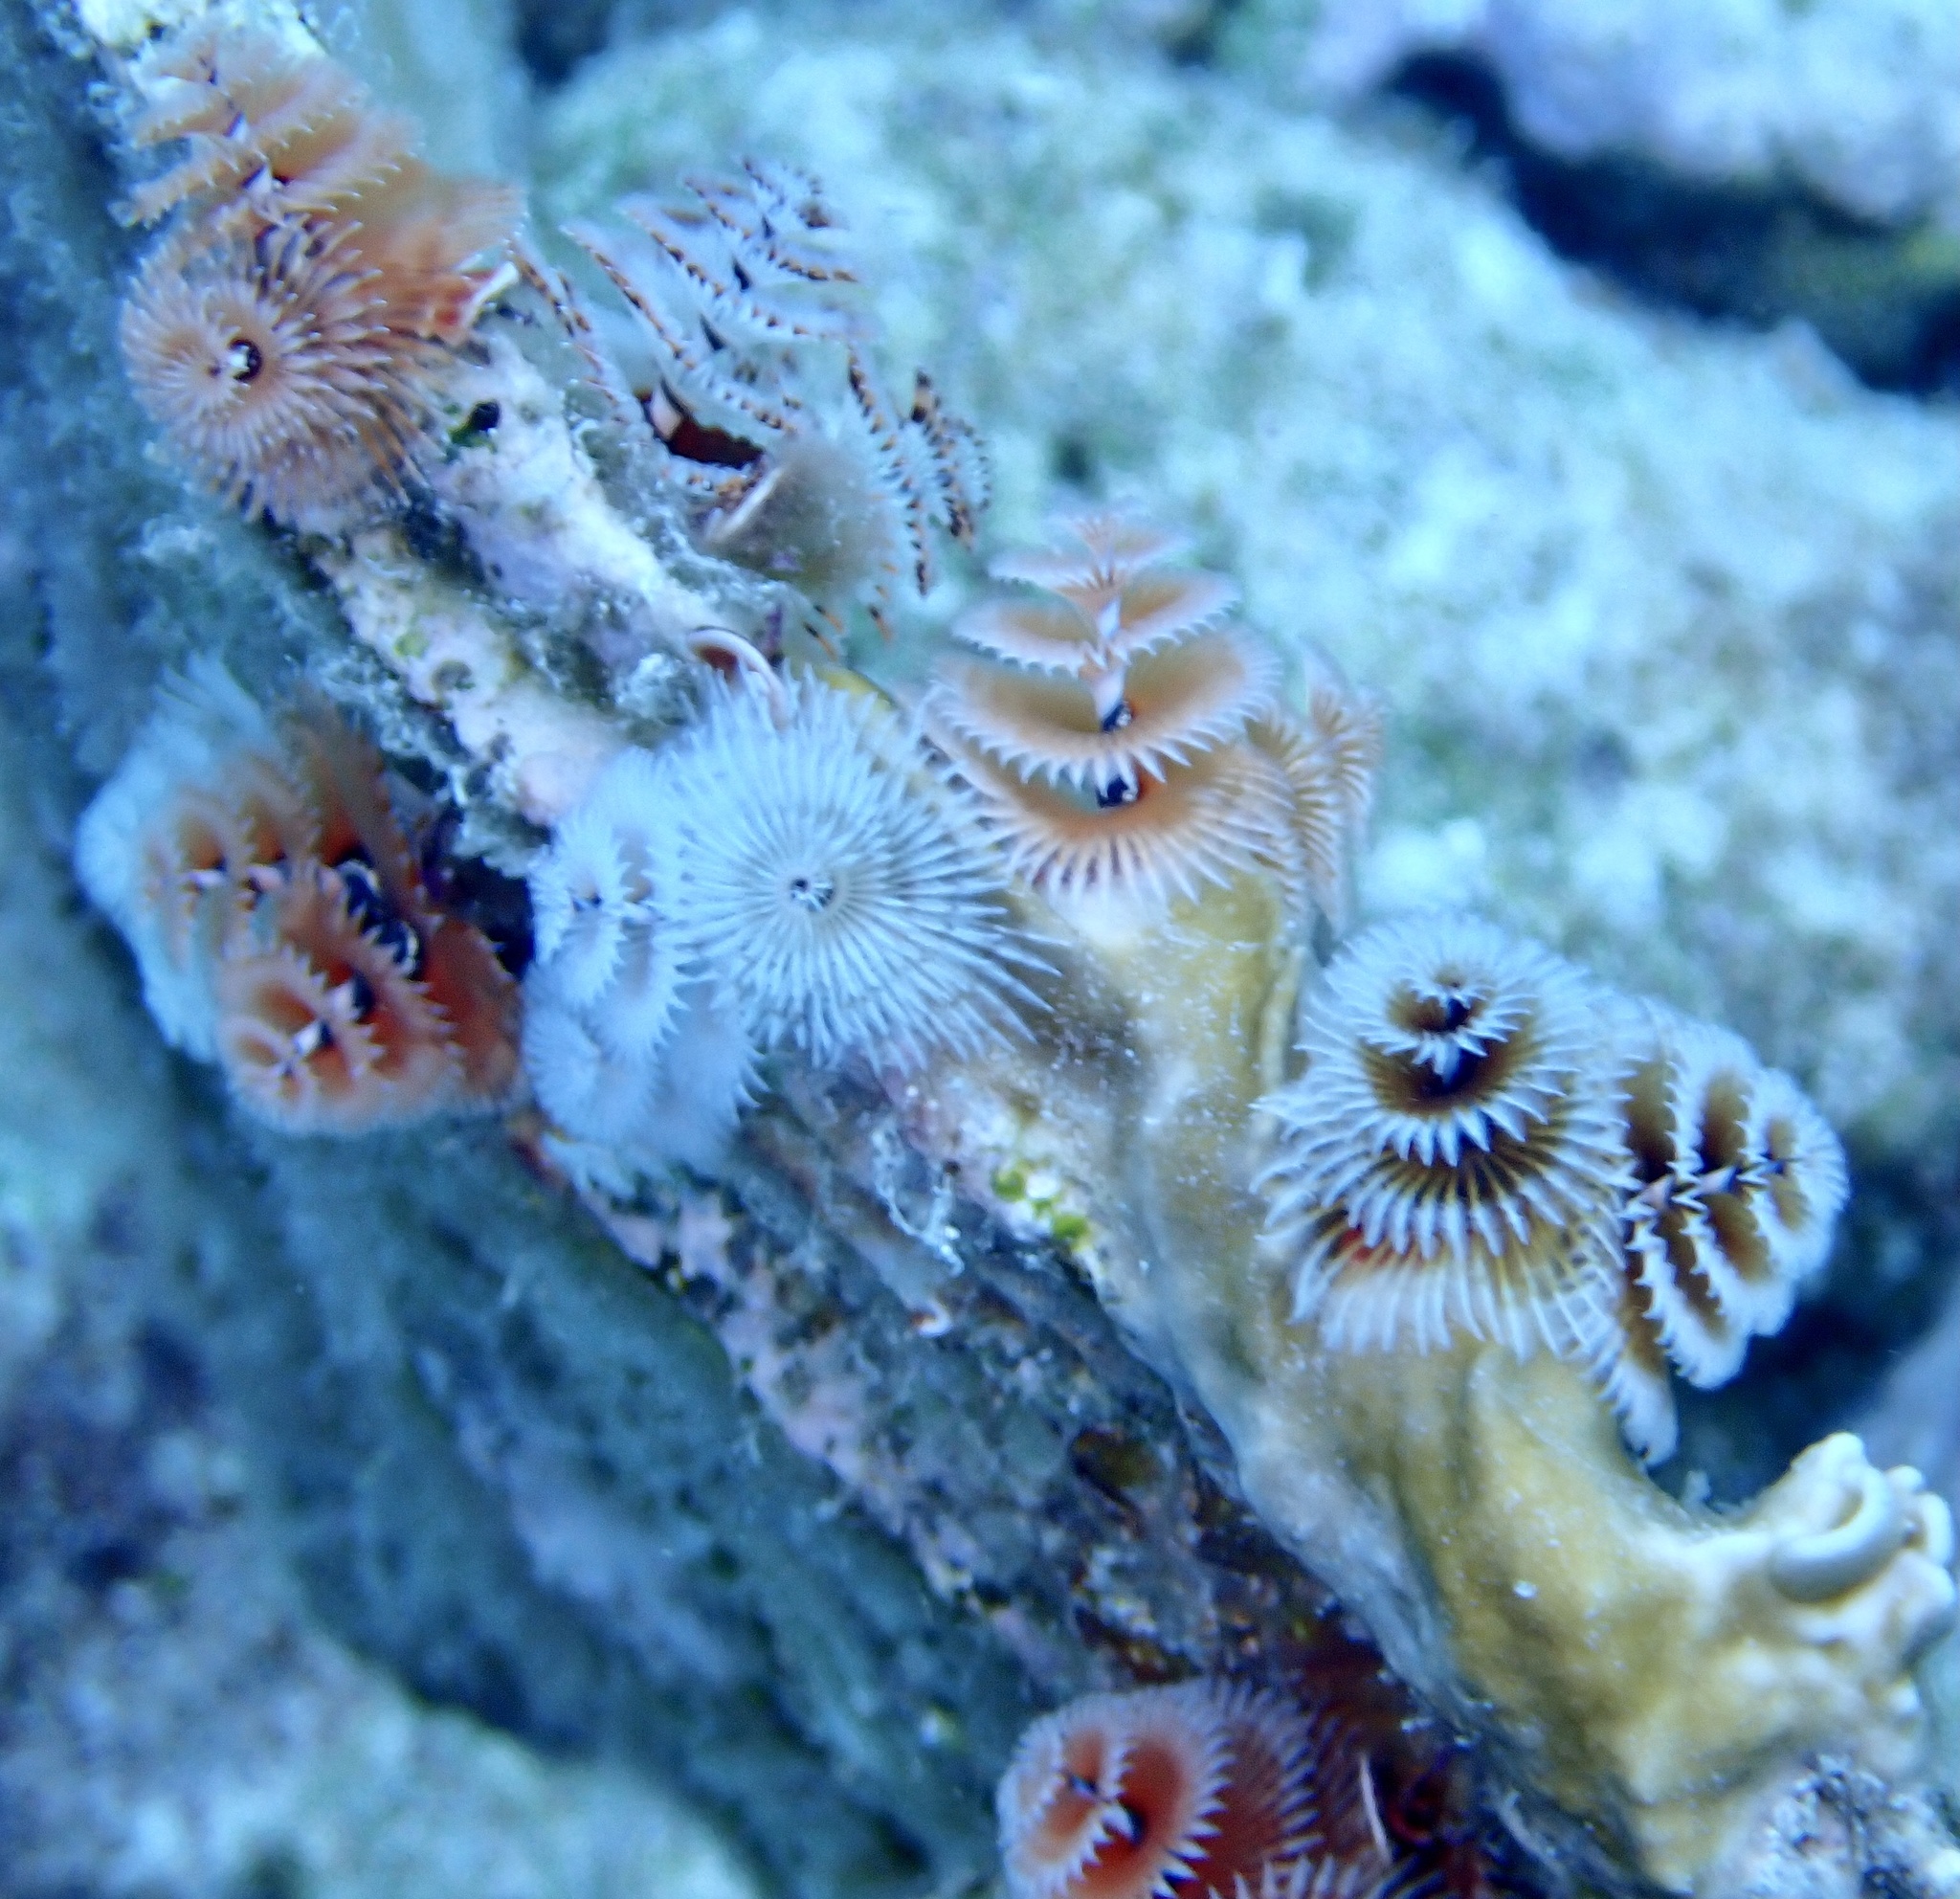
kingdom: Animalia
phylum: Annelida
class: Polychaeta
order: Sabellida
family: Serpulidae
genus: Spirobranchus
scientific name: Spirobranchus giganteus
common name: Christmas tree worm
